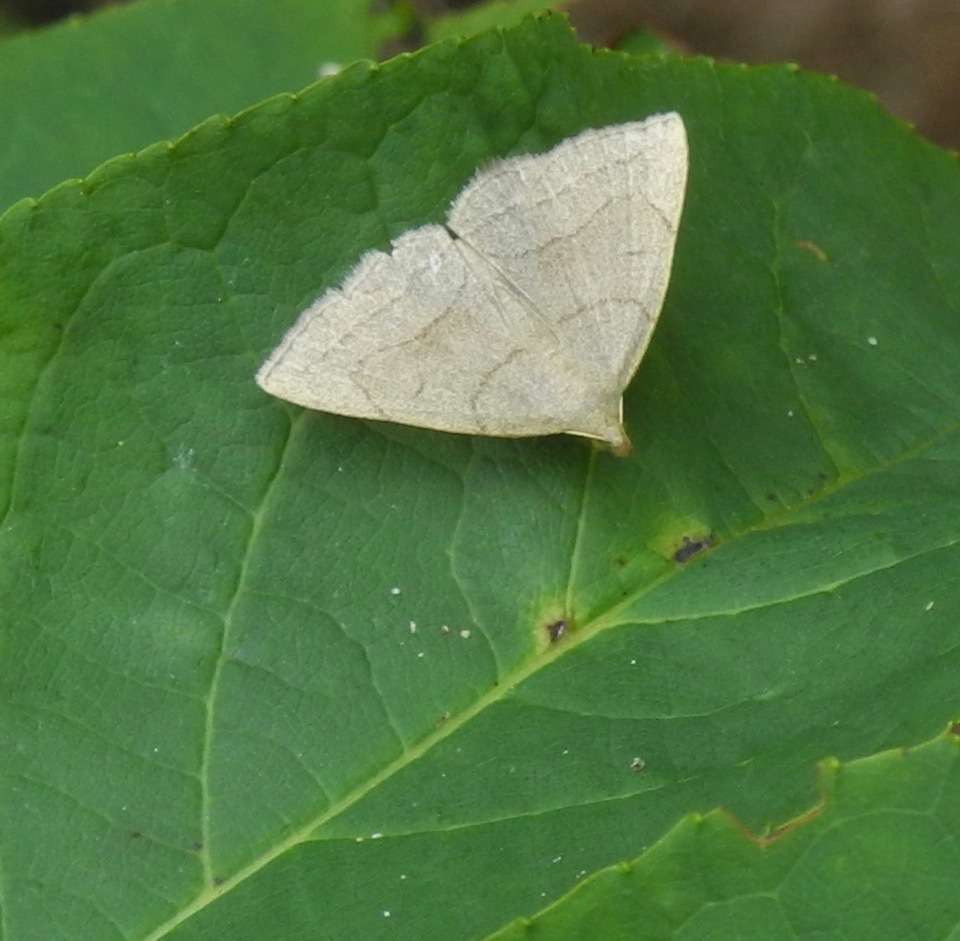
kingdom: Animalia
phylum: Arthropoda
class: Insecta
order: Lepidoptera
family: Erebidae
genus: Zanclognatha
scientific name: Zanclognatha pedipilalis
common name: Grayish fan-foot
